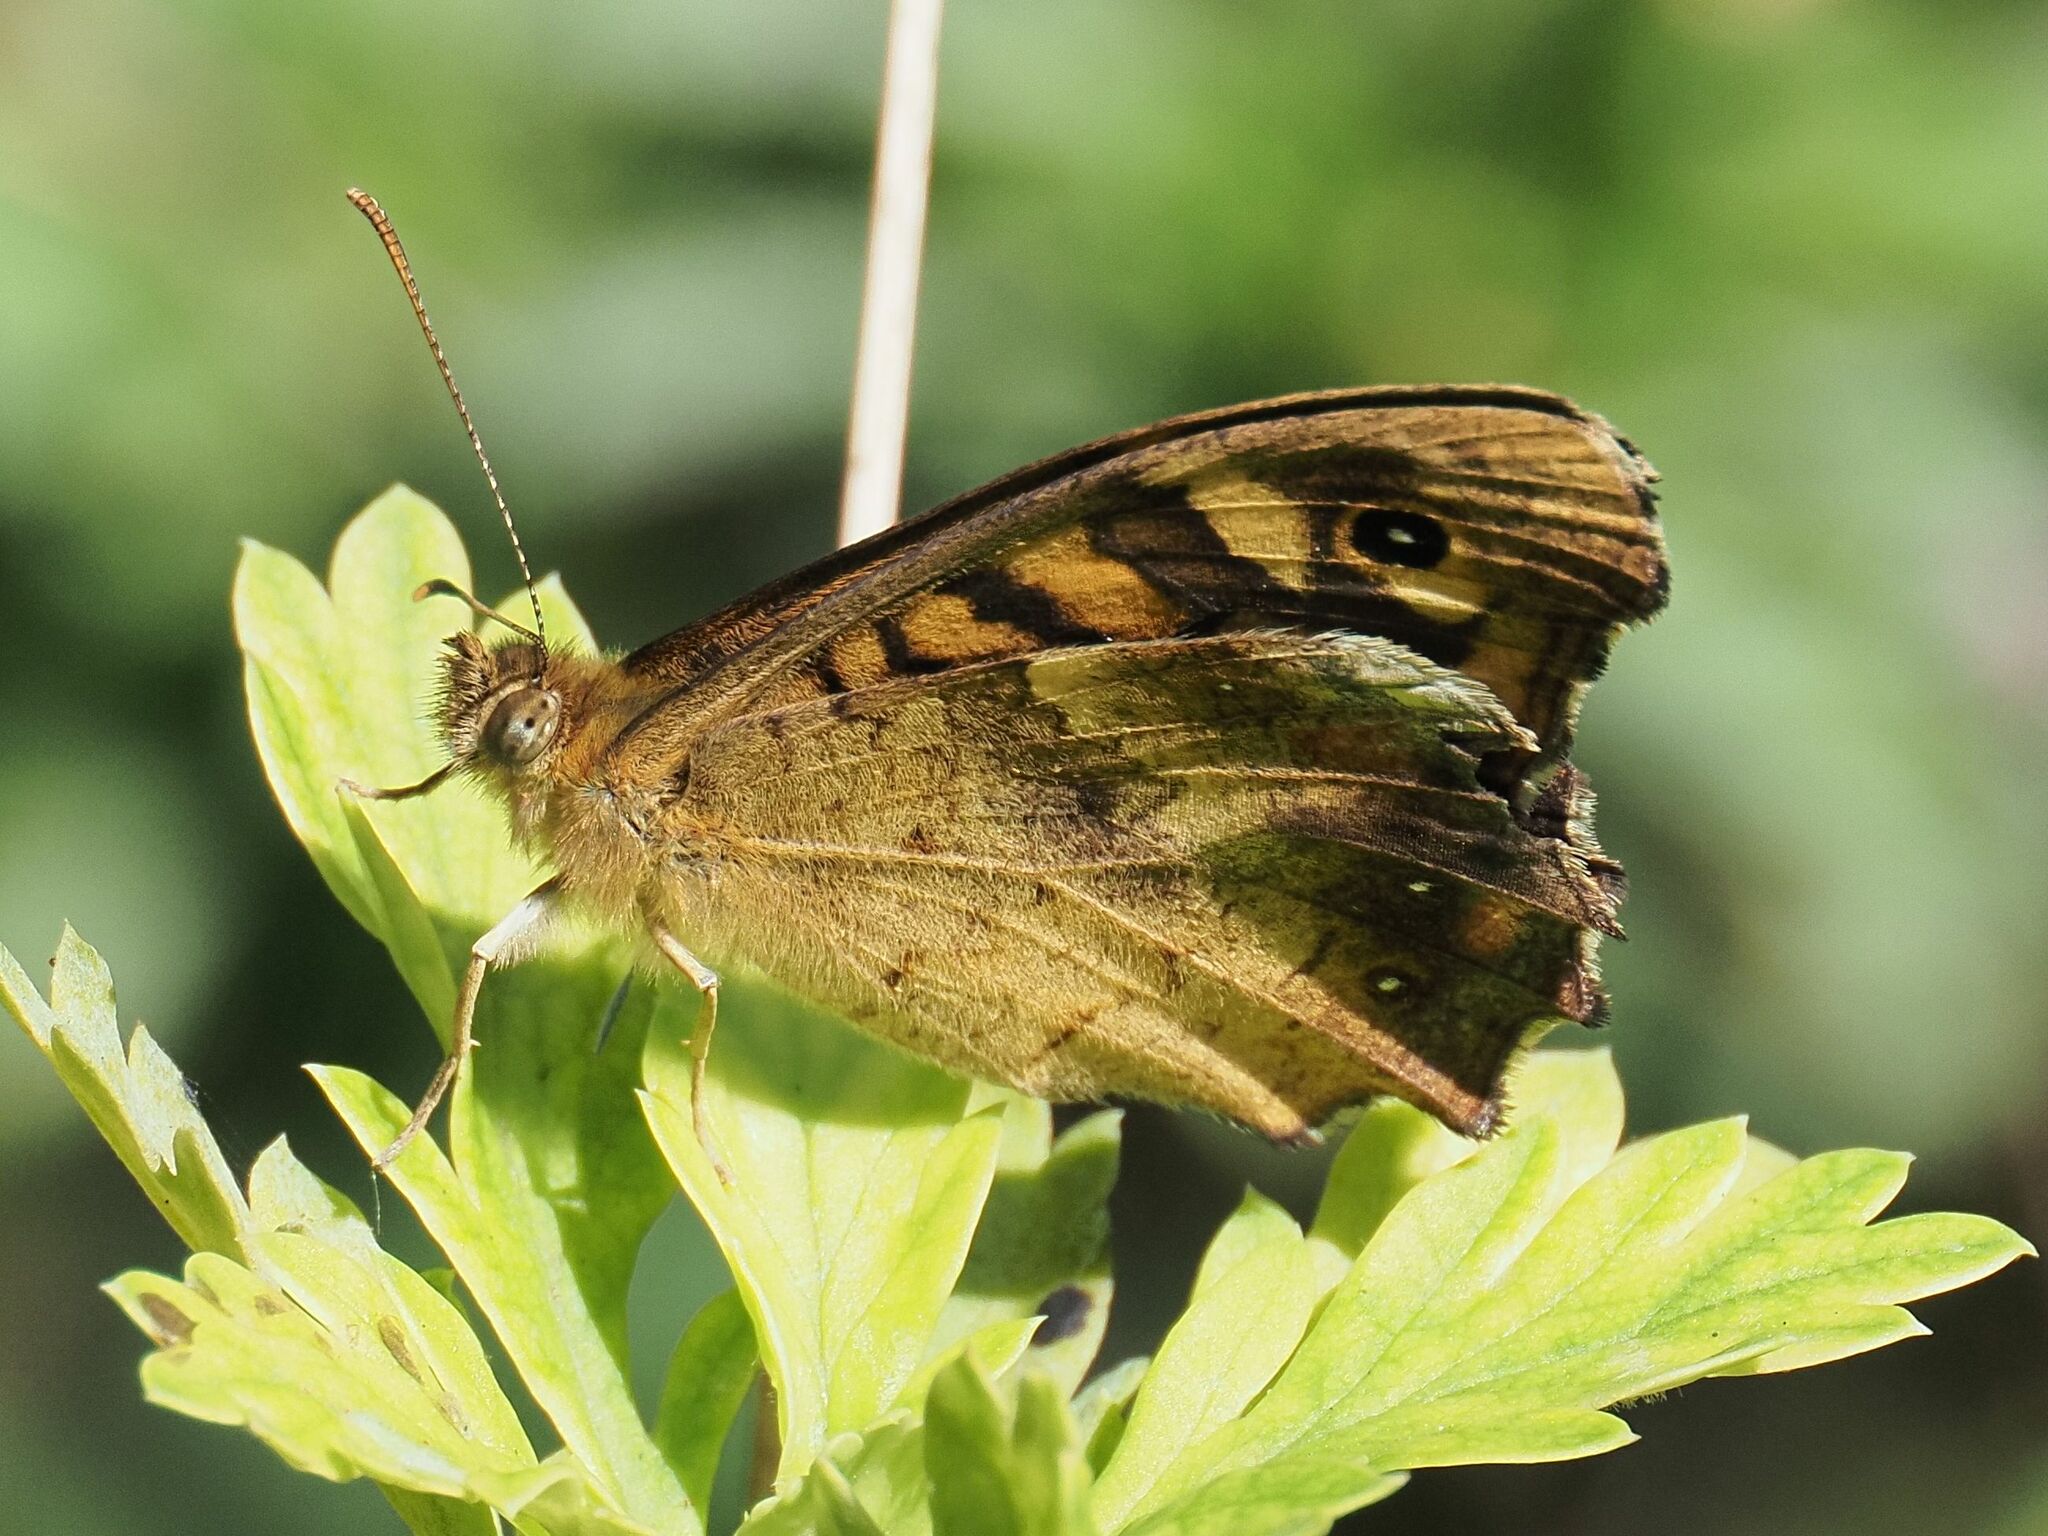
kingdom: Animalia
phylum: Arthropoda
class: Insecta
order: Lepidoptera
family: Nymphalidae
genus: Pararge
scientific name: Pararge aegeria
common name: Speckled wood
